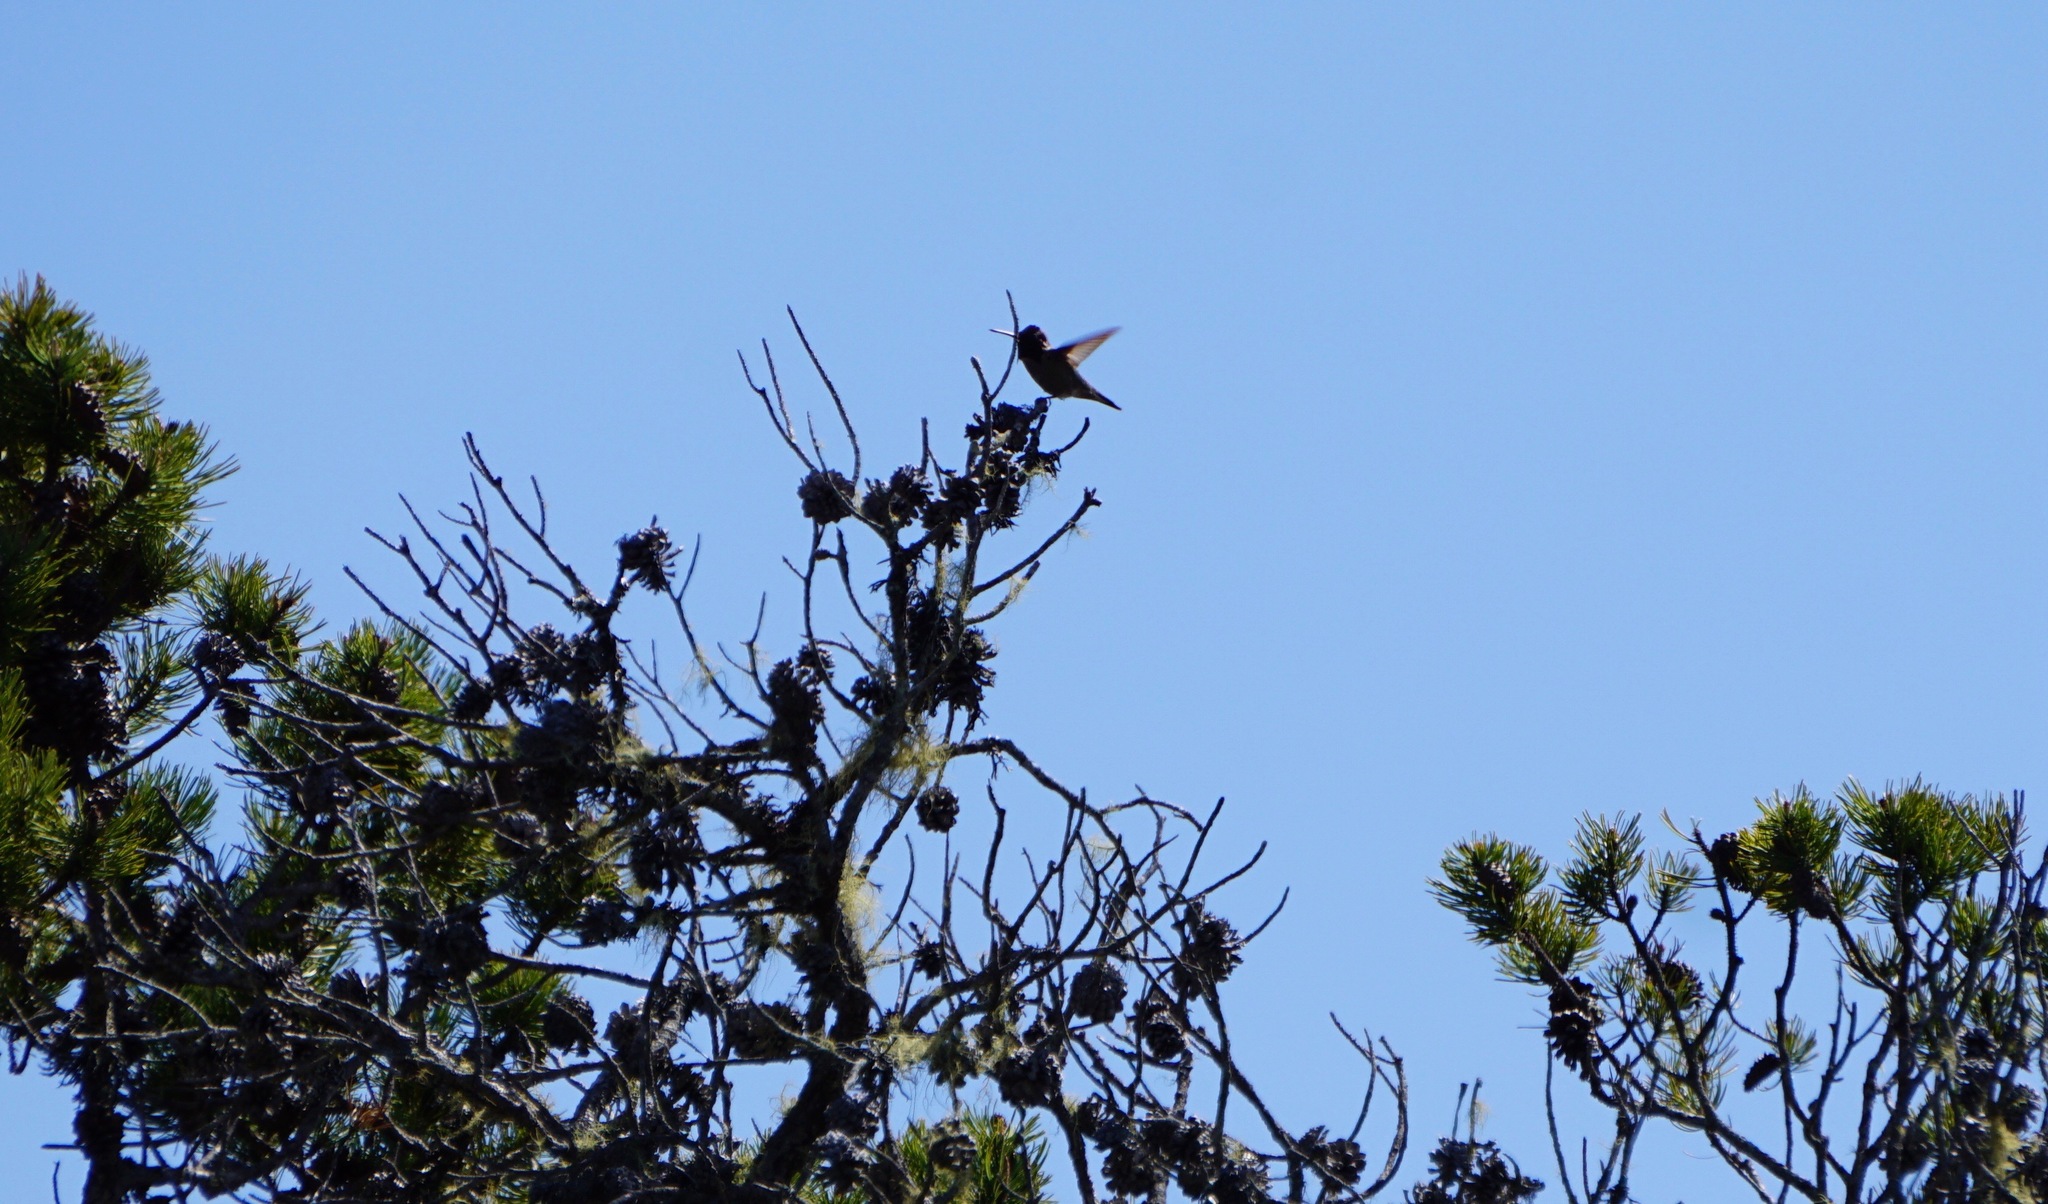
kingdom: Animalia
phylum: Chordata
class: Aves
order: Apodiformes
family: Trochilidae
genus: Calypte
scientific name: Calypte anna
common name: Anna's hummingbird
